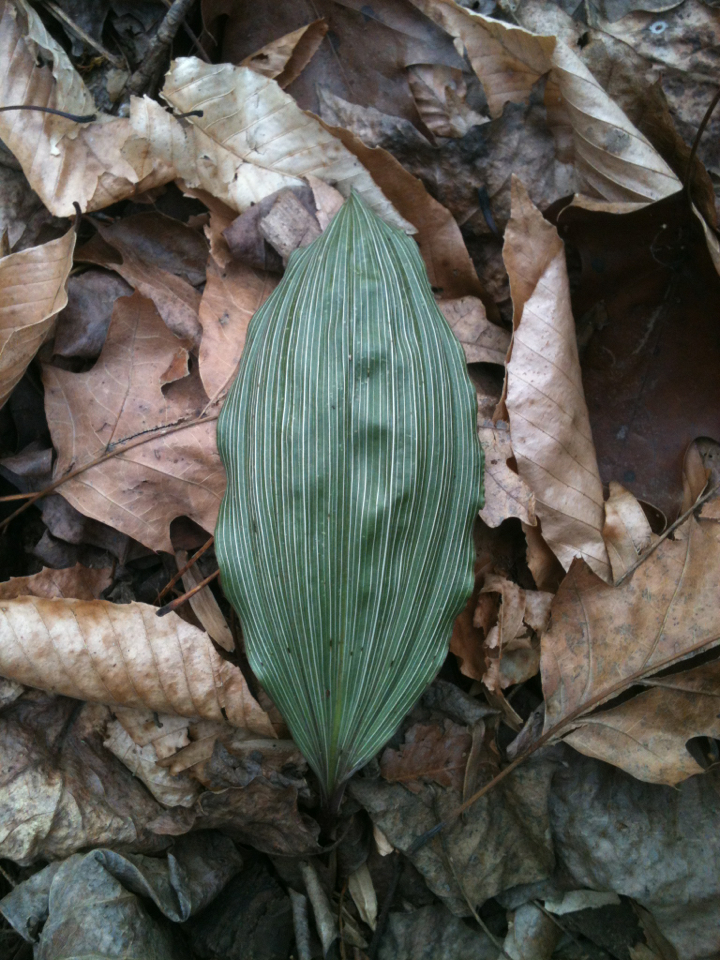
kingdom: Plantae
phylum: Tracheophyta
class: Liliopsida
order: Asparagales
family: Orchidaceae
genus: Aplectrum
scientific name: Aplectrum hyemale
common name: Adam-and-eve
